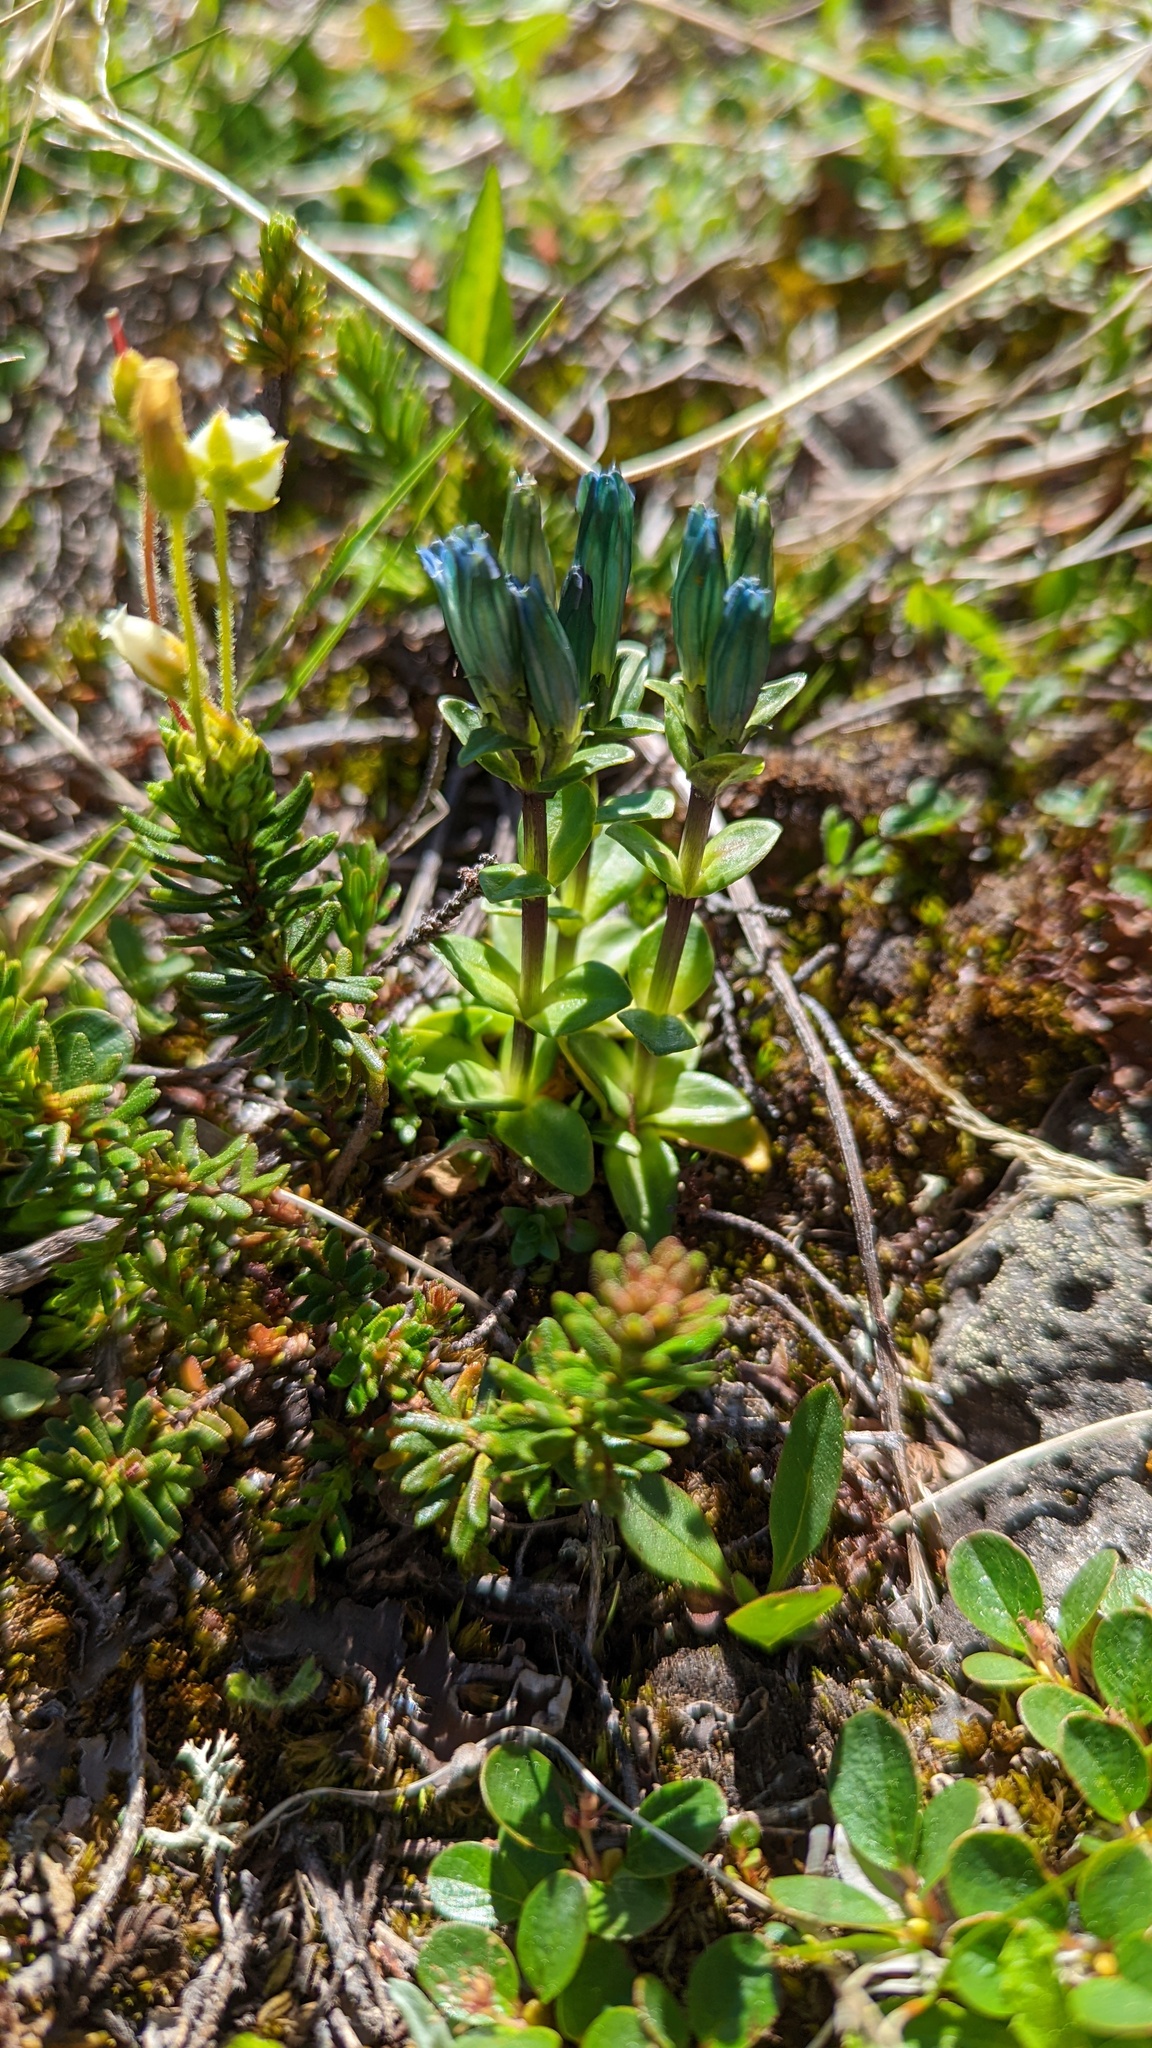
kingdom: Plantae
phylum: Tracheophyta
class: Magnoliopsida
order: Gentianales
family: Gentianaceae
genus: Gentiana
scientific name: Gentiana glauca
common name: Alpine gentian
